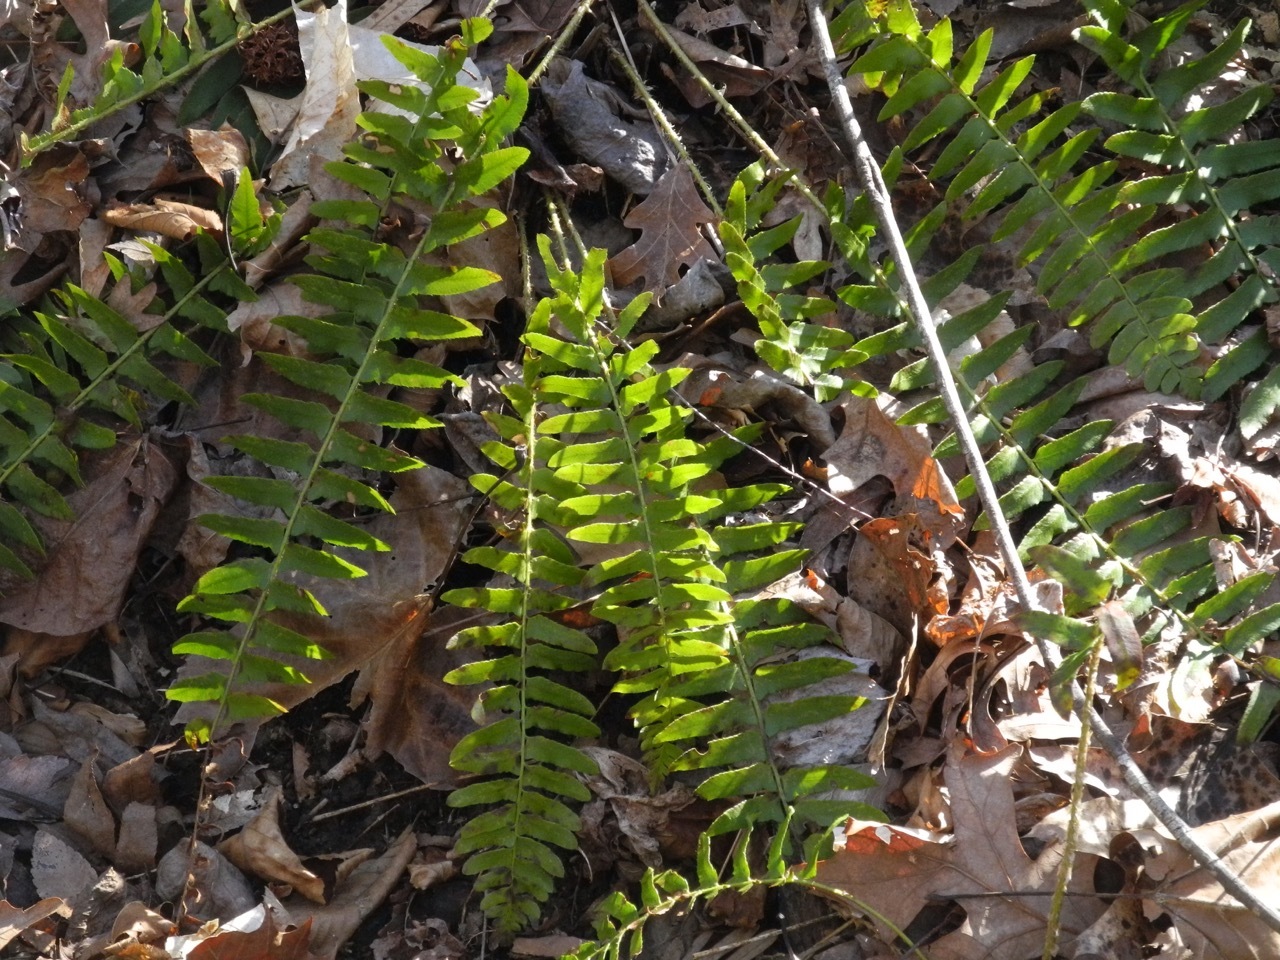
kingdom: Plantae
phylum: Tracheophyta
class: Polypodiopsida
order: Polypodiales
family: Dryopteridaceae
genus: Polystichum
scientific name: Polystichum acrostichoides
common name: Christmas fern
